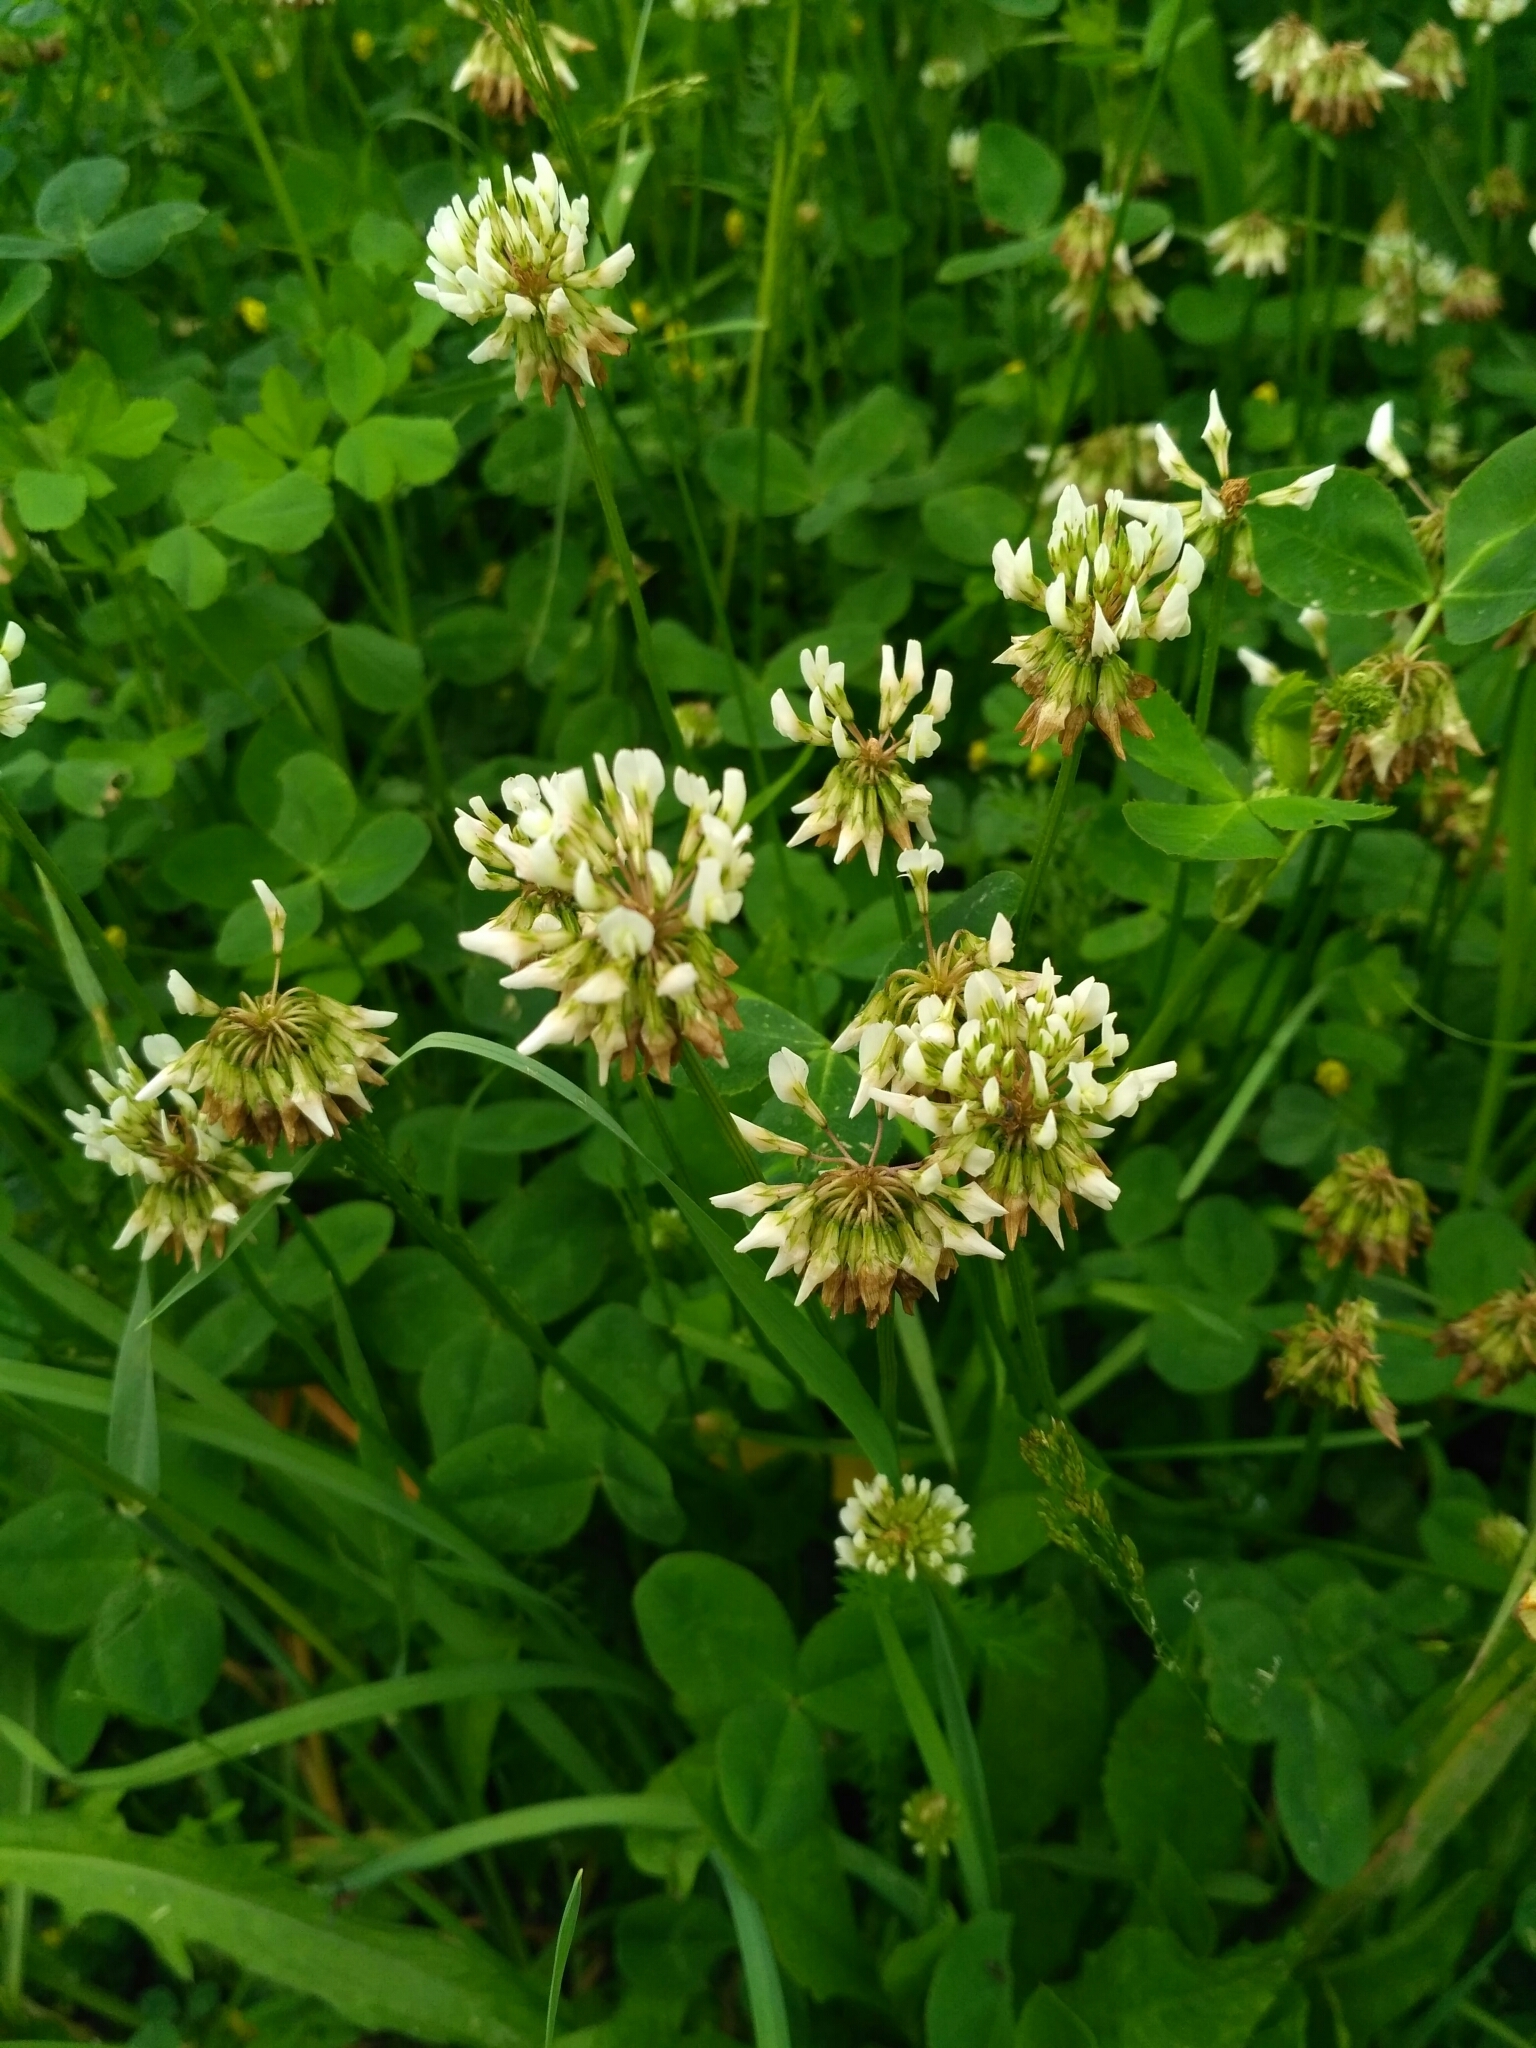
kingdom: Plantae
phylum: Tracheophyta
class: Magnoliopsida
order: Fabales
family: Fabaceae
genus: Trifolium
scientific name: Trifolium repens
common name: White clover
